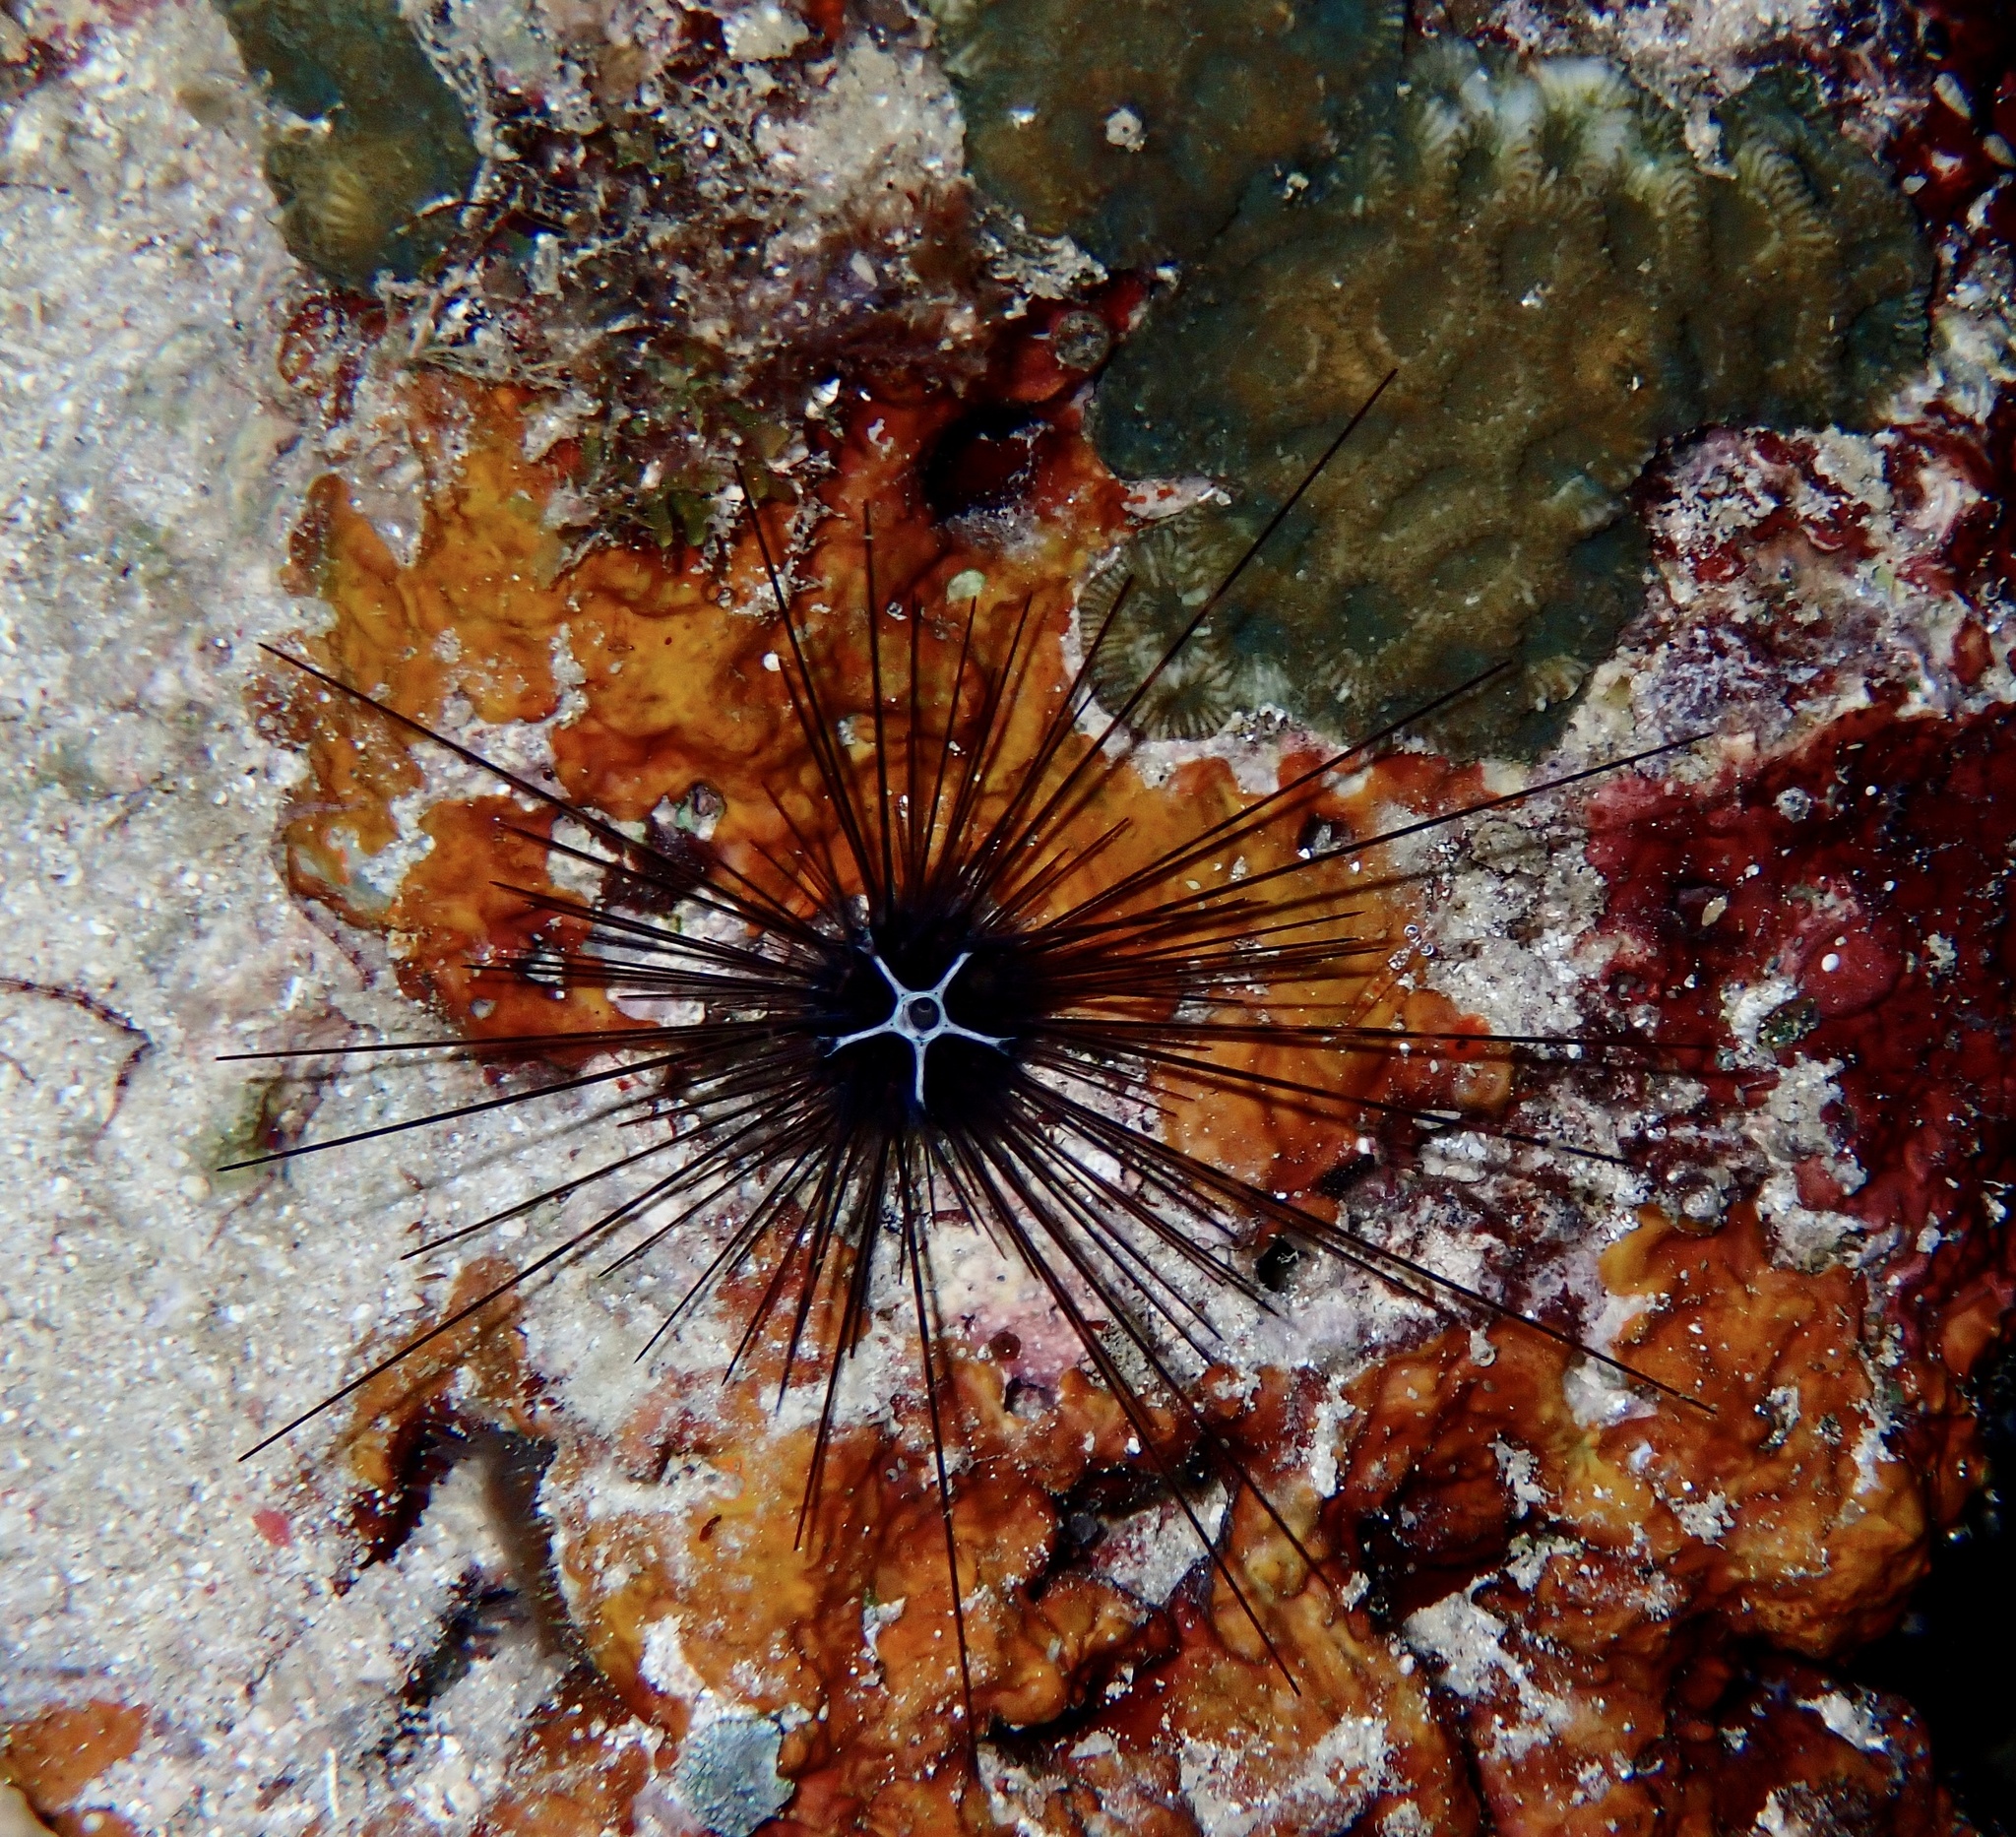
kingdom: Animalia
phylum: Echinodermata
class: Echinoidea
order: Diadematoida
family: Diadematidae
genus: Diadema
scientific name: Diadema savignyi
